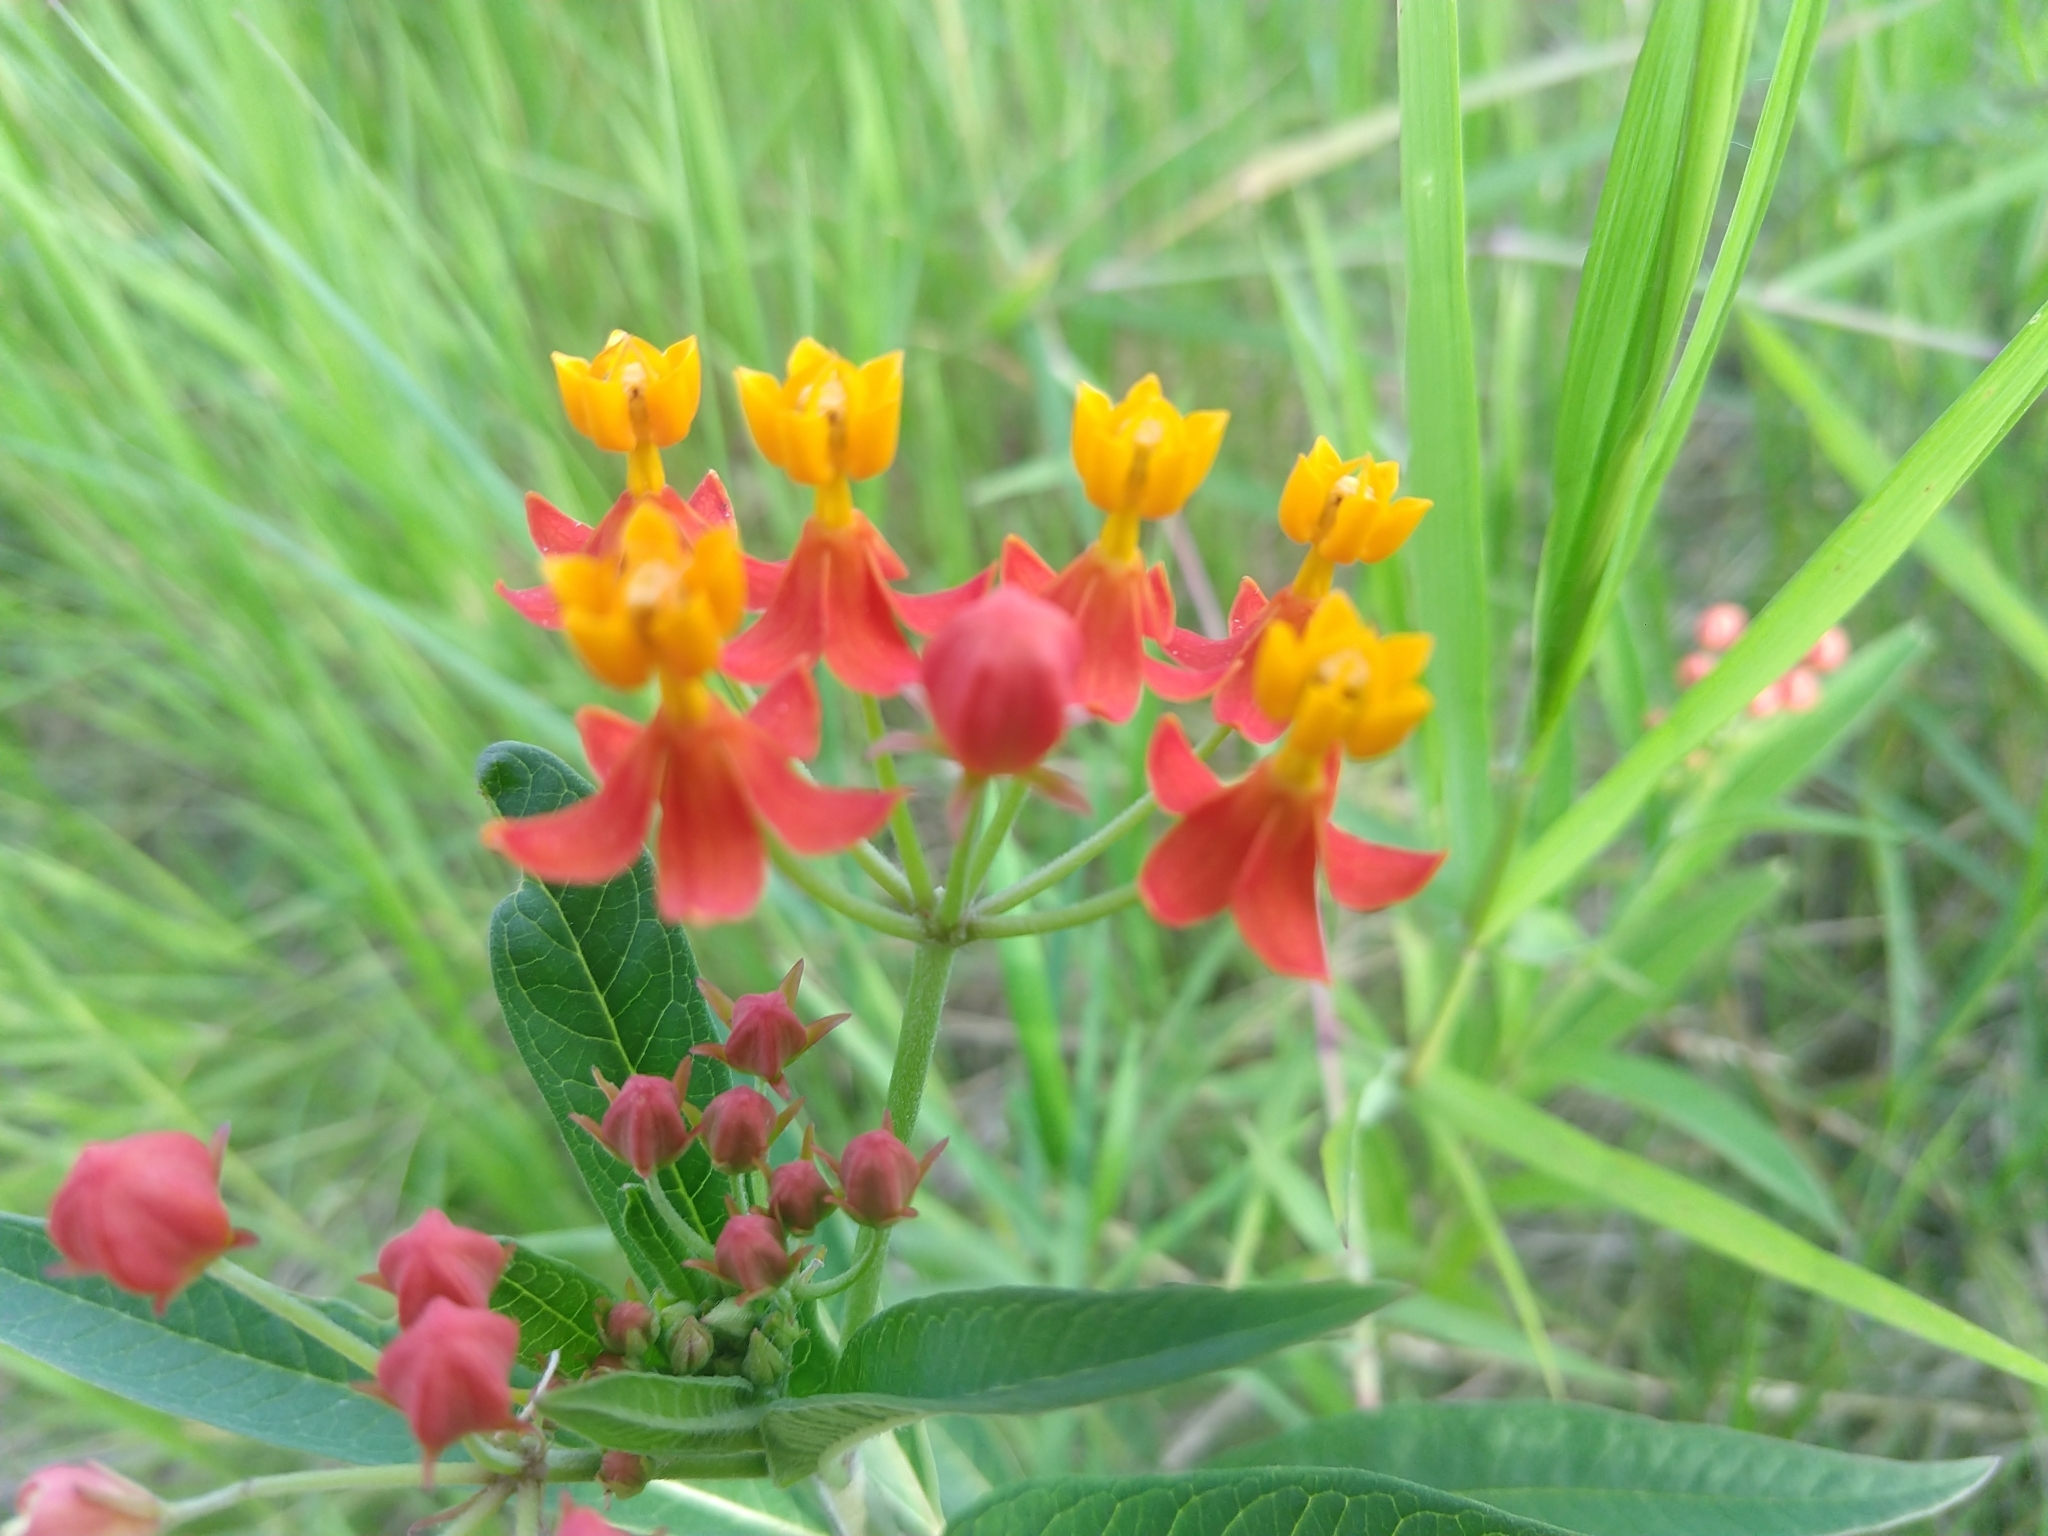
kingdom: Plantae
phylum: Tracheophyta
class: Magnoliopsida
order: Gentianales
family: Apocynaceae
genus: Asclepias
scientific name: Asclepias curassavica
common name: Bloodflower
